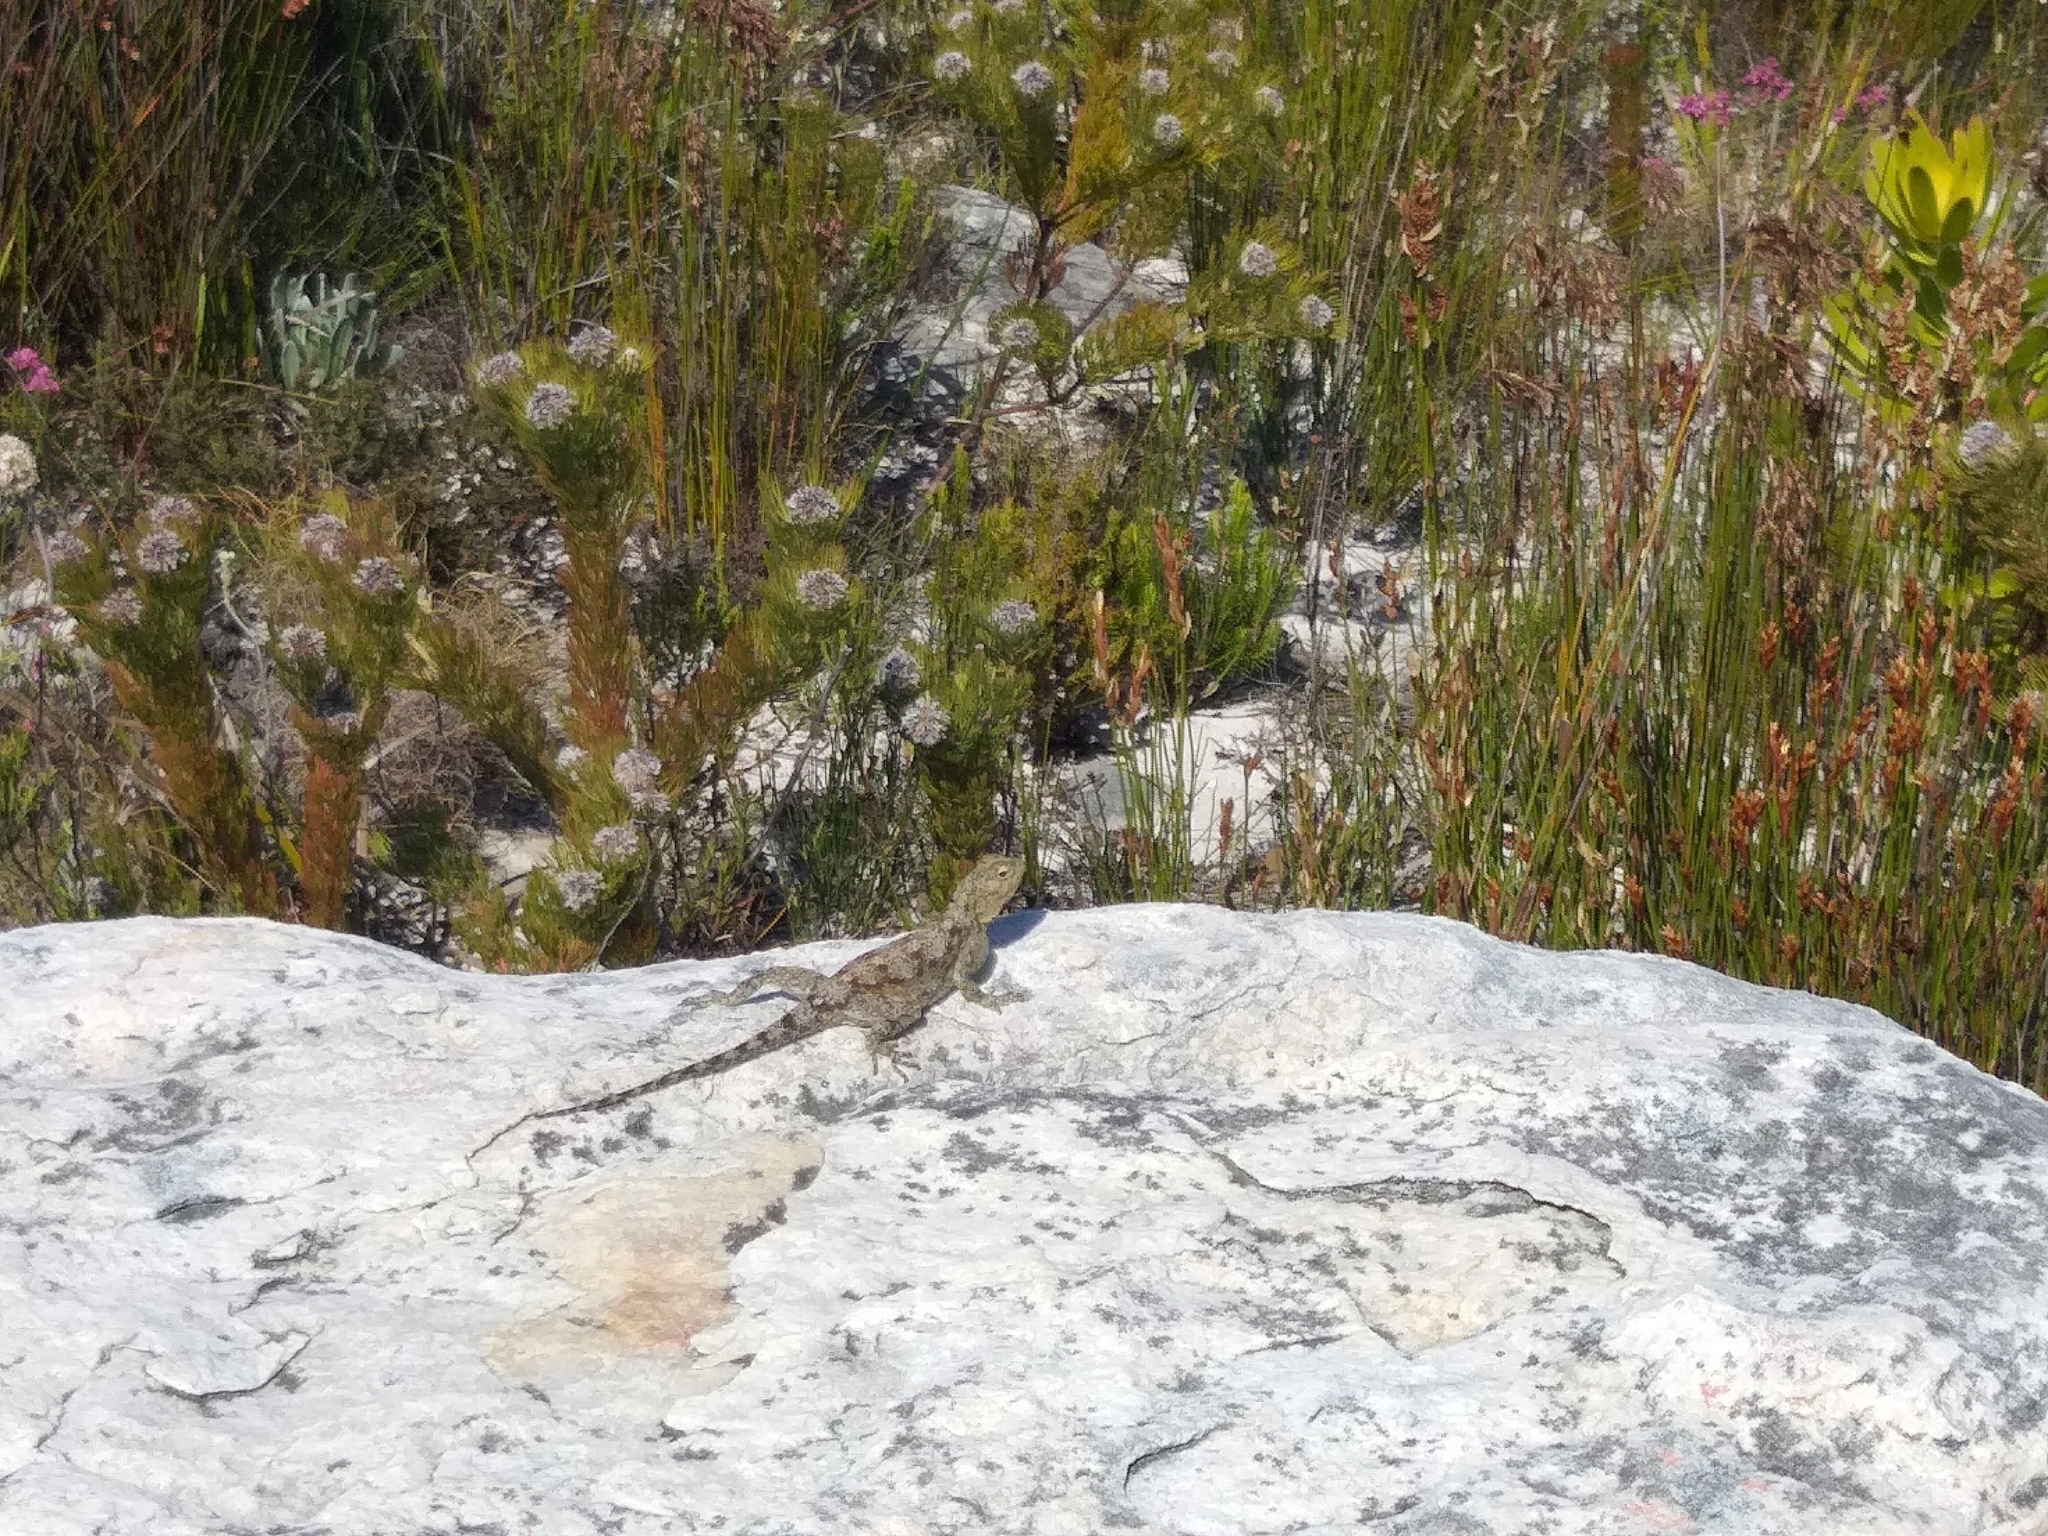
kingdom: Animalia
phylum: Chordata
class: Squamata
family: Agamidae
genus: Agama
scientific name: Agama atra
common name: Southern african rock agama
